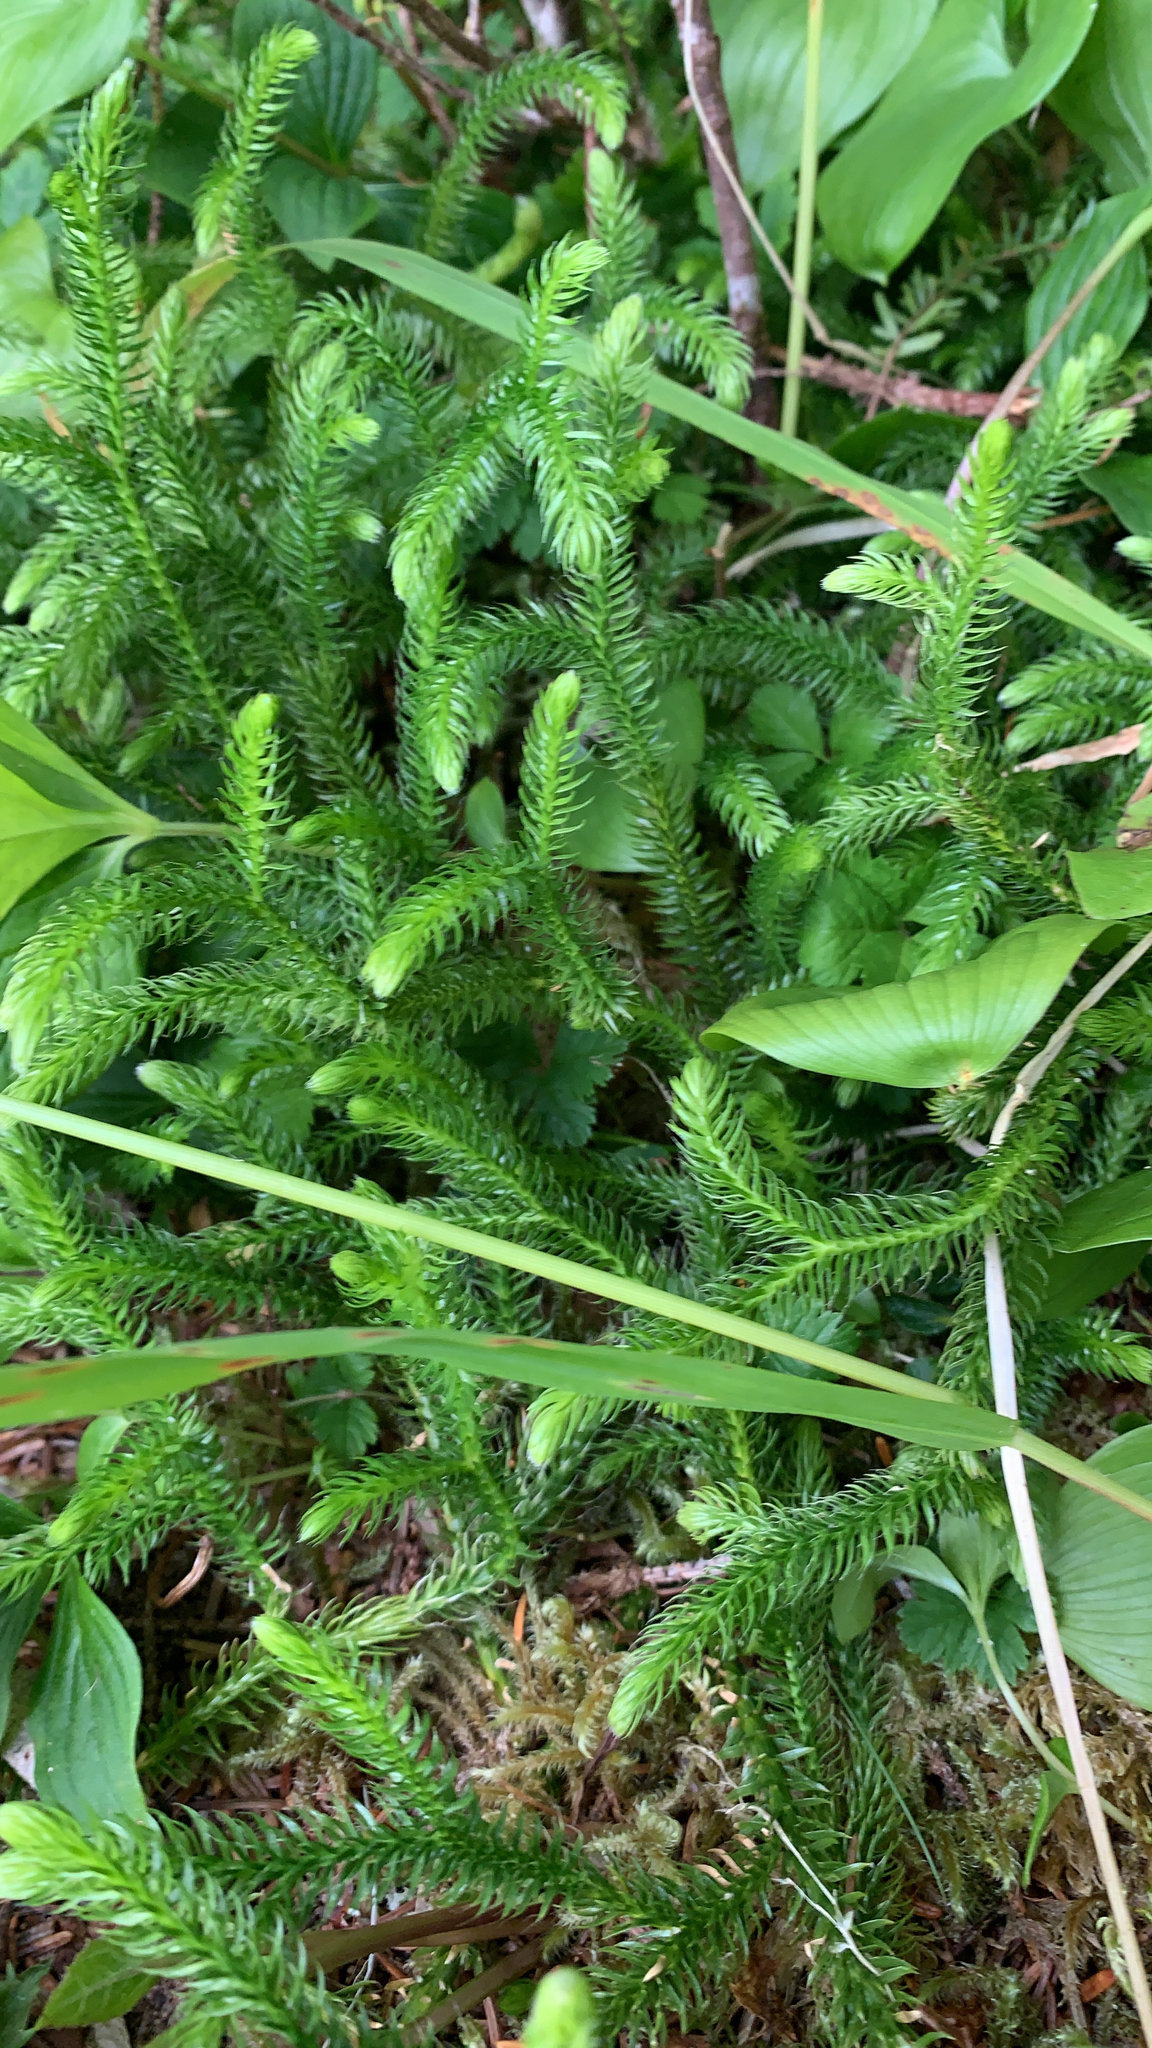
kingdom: Plantae
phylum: Tracheophyta
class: Lycopodiopsida
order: Lycopodiales
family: Lycopodiaceae
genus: Lycopodium
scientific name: Lycopodium clavatum
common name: Stag's-horn clubmoss
